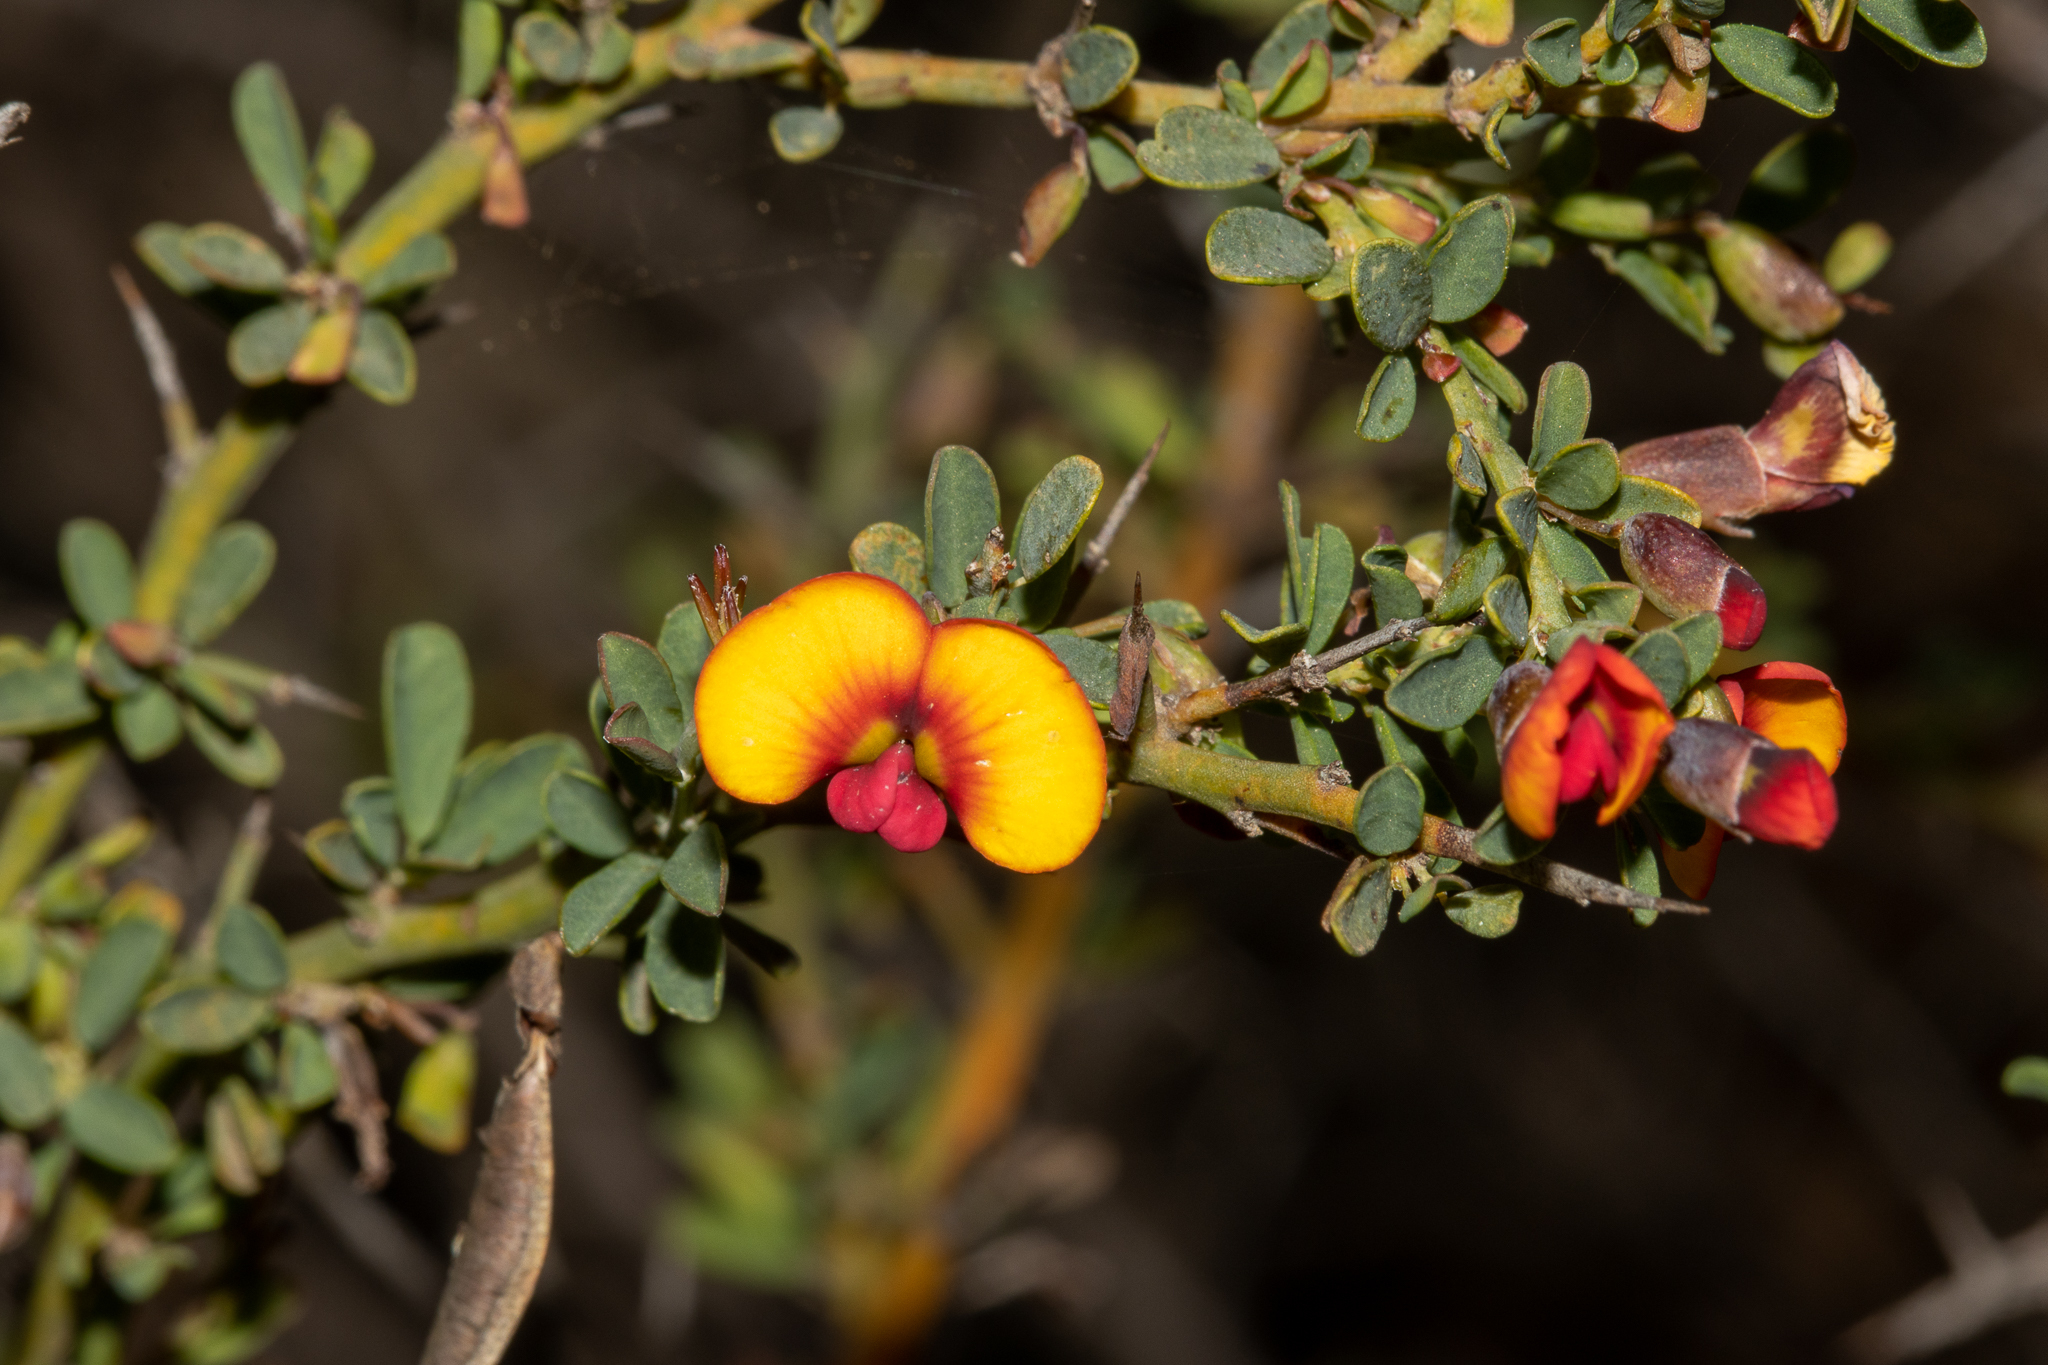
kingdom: Plantae
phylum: Tracheophyta
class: Magnoliopsida
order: Fabales
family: Fabaceae
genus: Bossiaea
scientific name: Bossiaea spinescens
